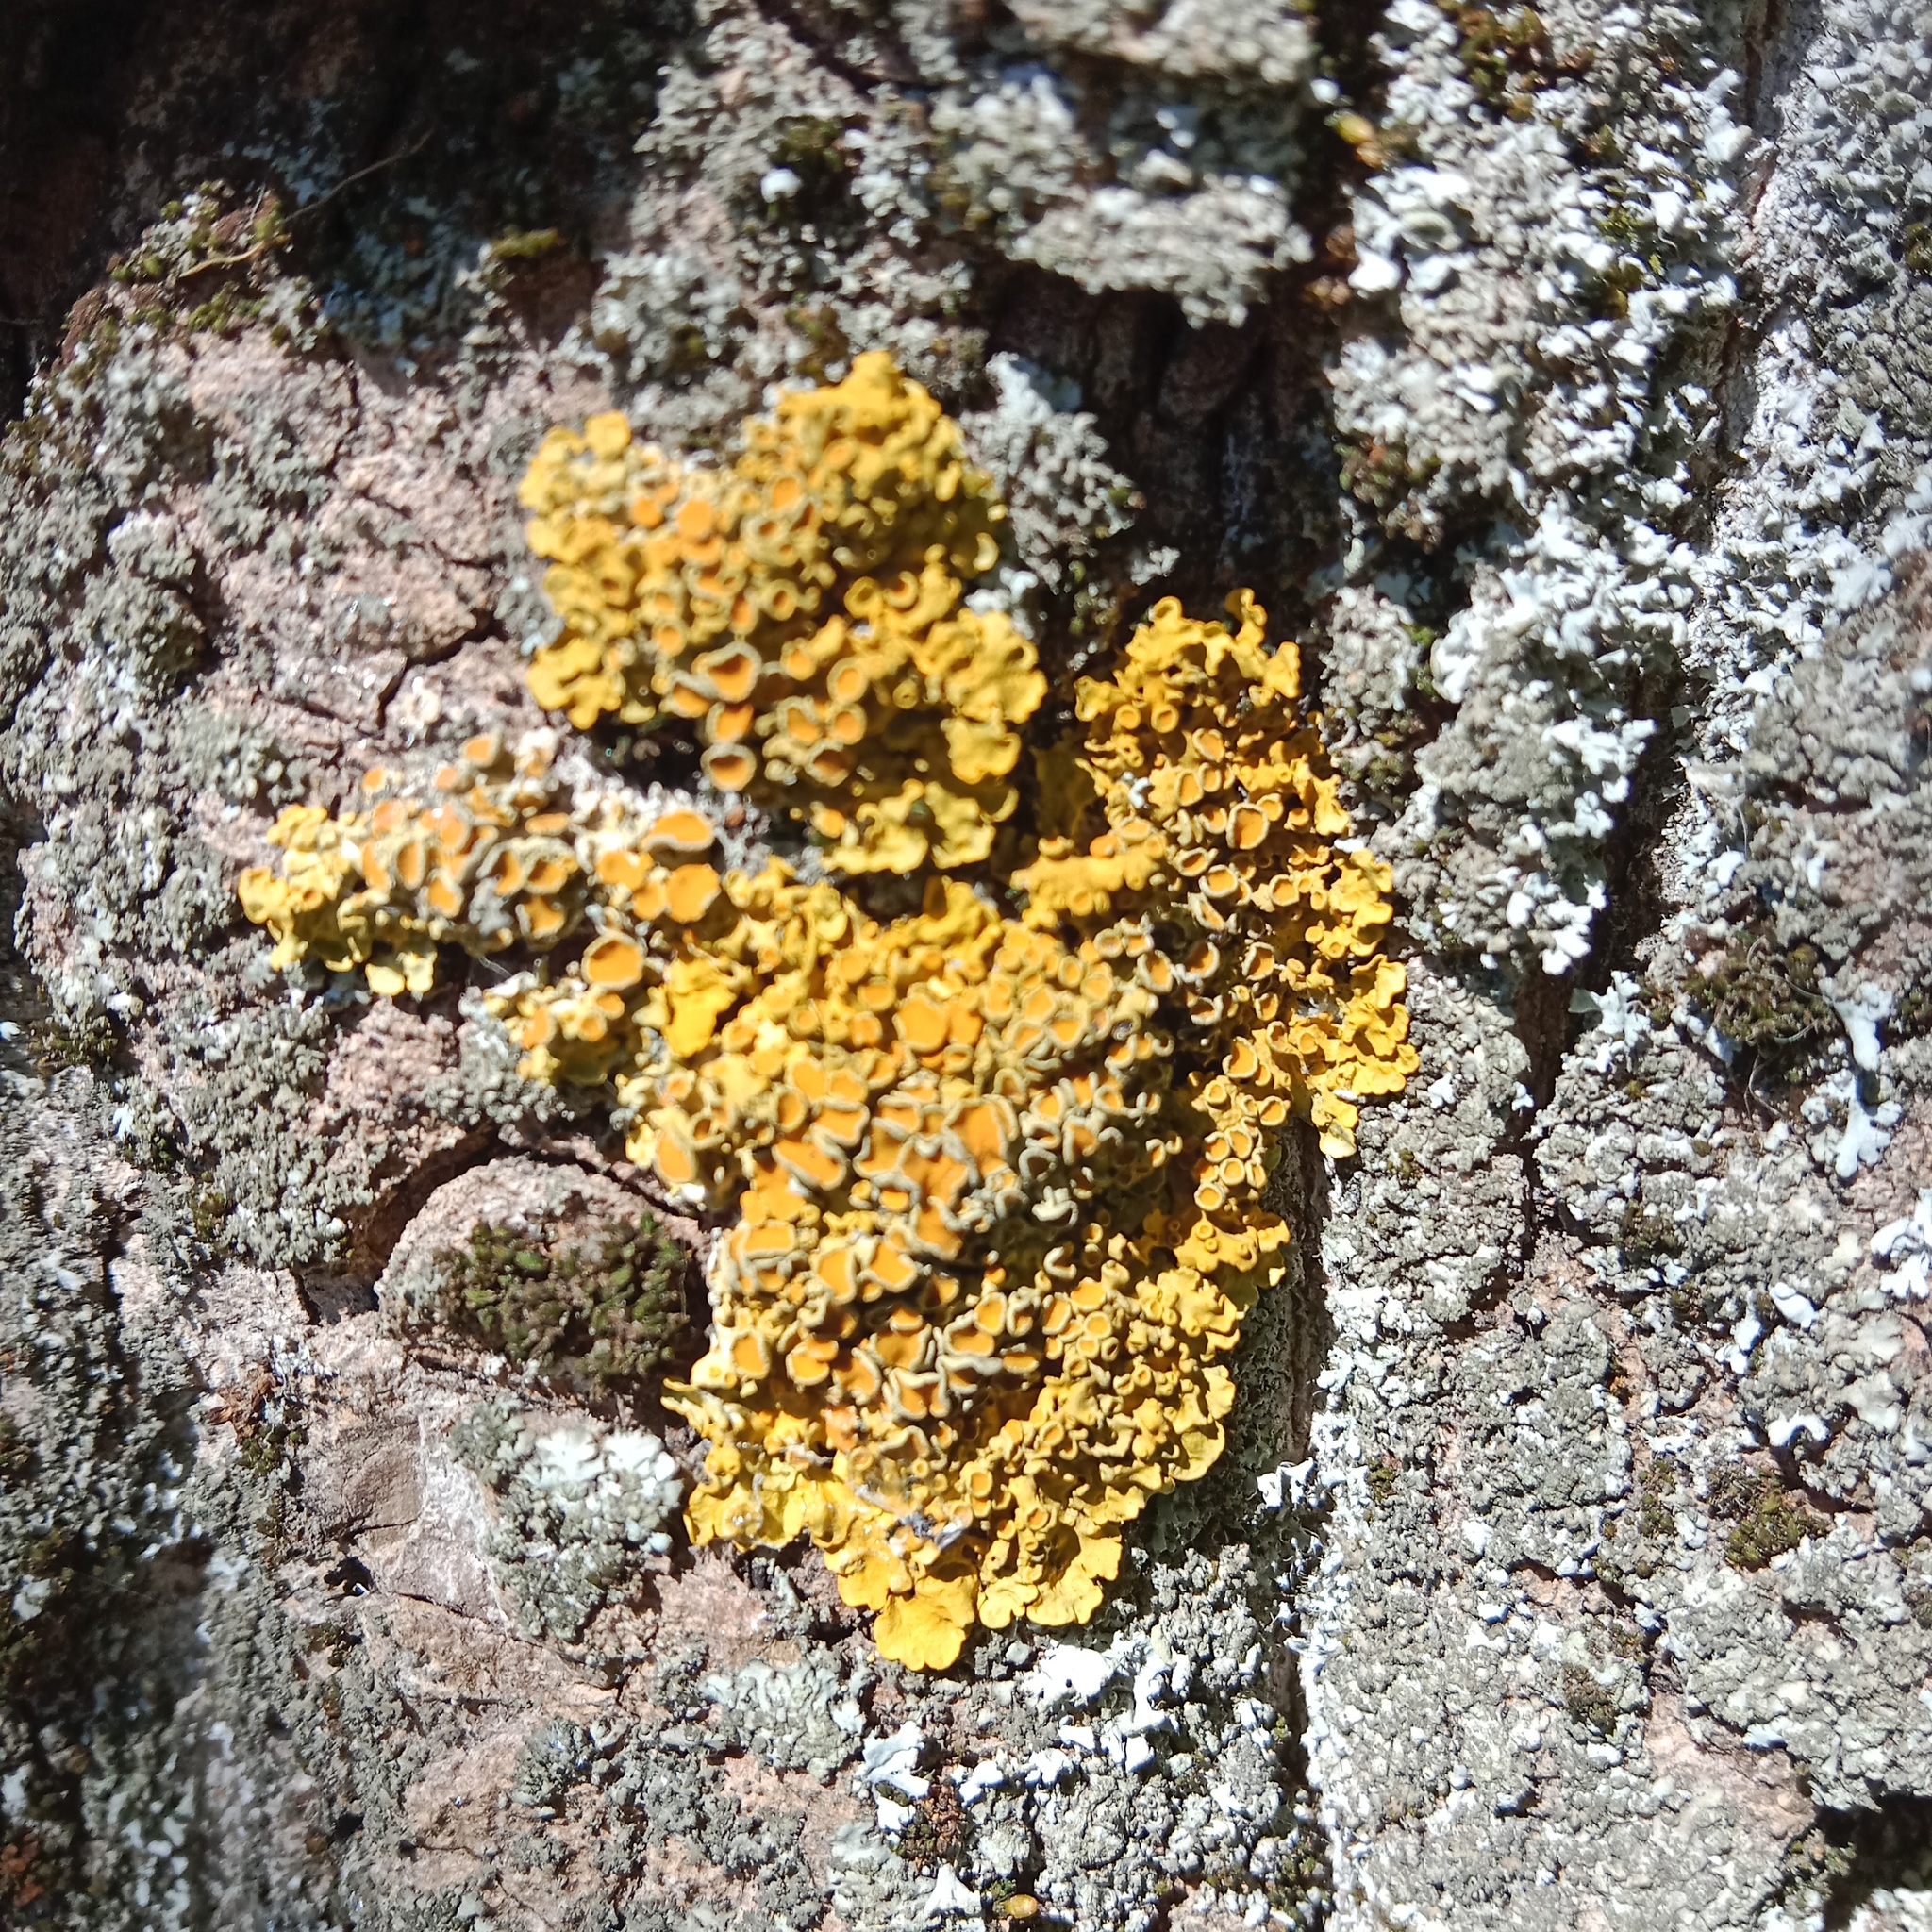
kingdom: Fungi
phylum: Ascomycota
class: Lecanoromycetes
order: Teloschistales
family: Teloschistaceae
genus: Xanthoria
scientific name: Xanthoria parietina
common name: Common orange lichen
